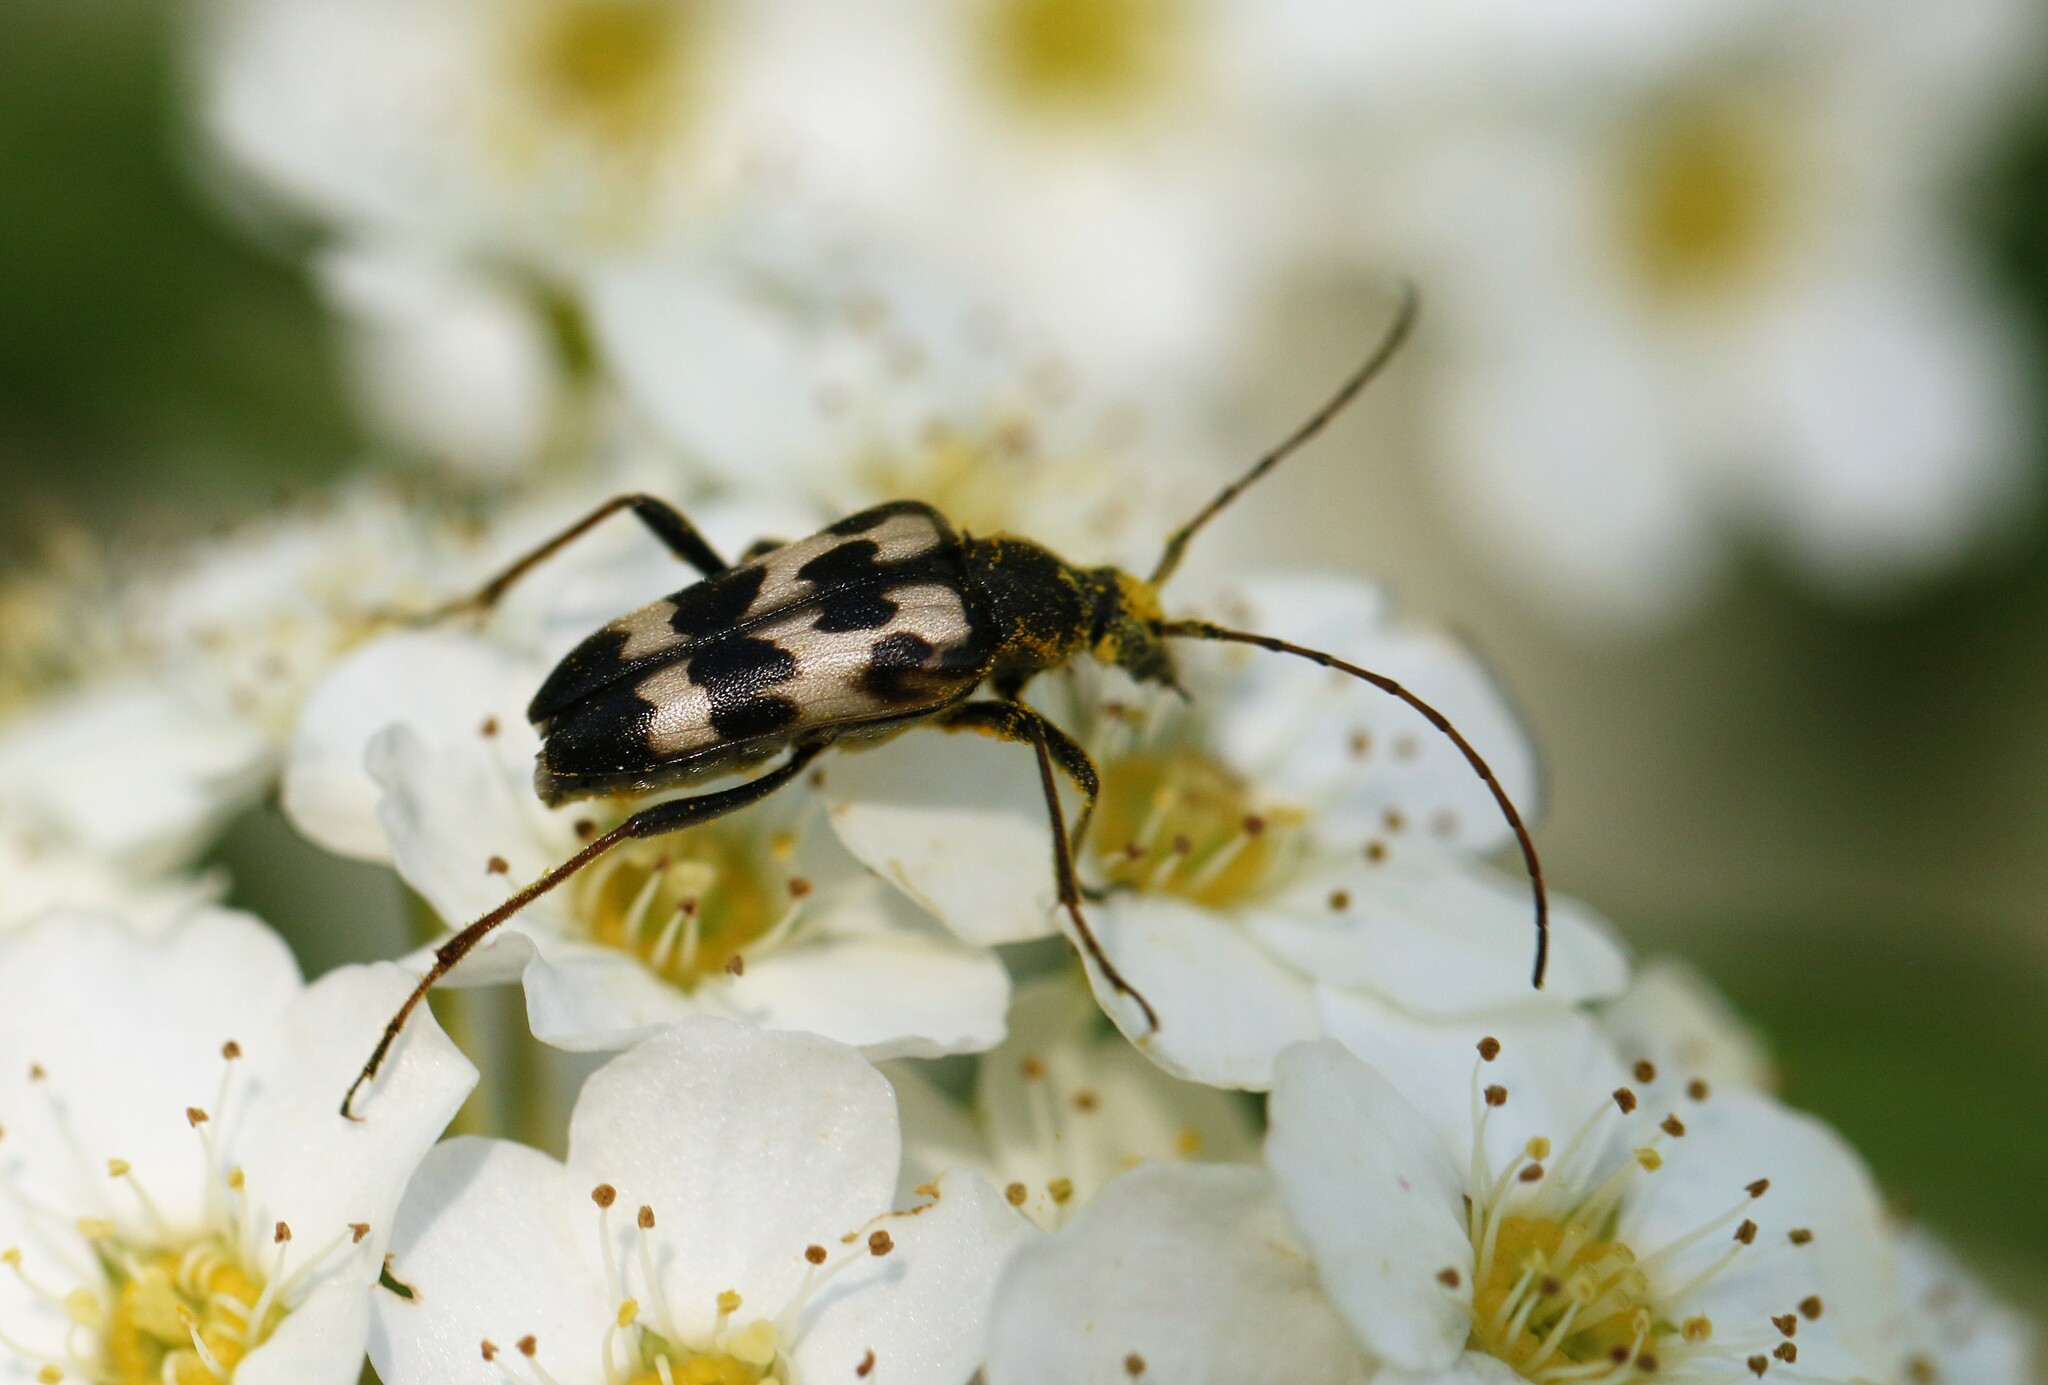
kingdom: Animalia
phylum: Arthropoda
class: Insecta
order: Coleoptera
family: Cerambycidae
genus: Judolia
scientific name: Judolia montivagans
